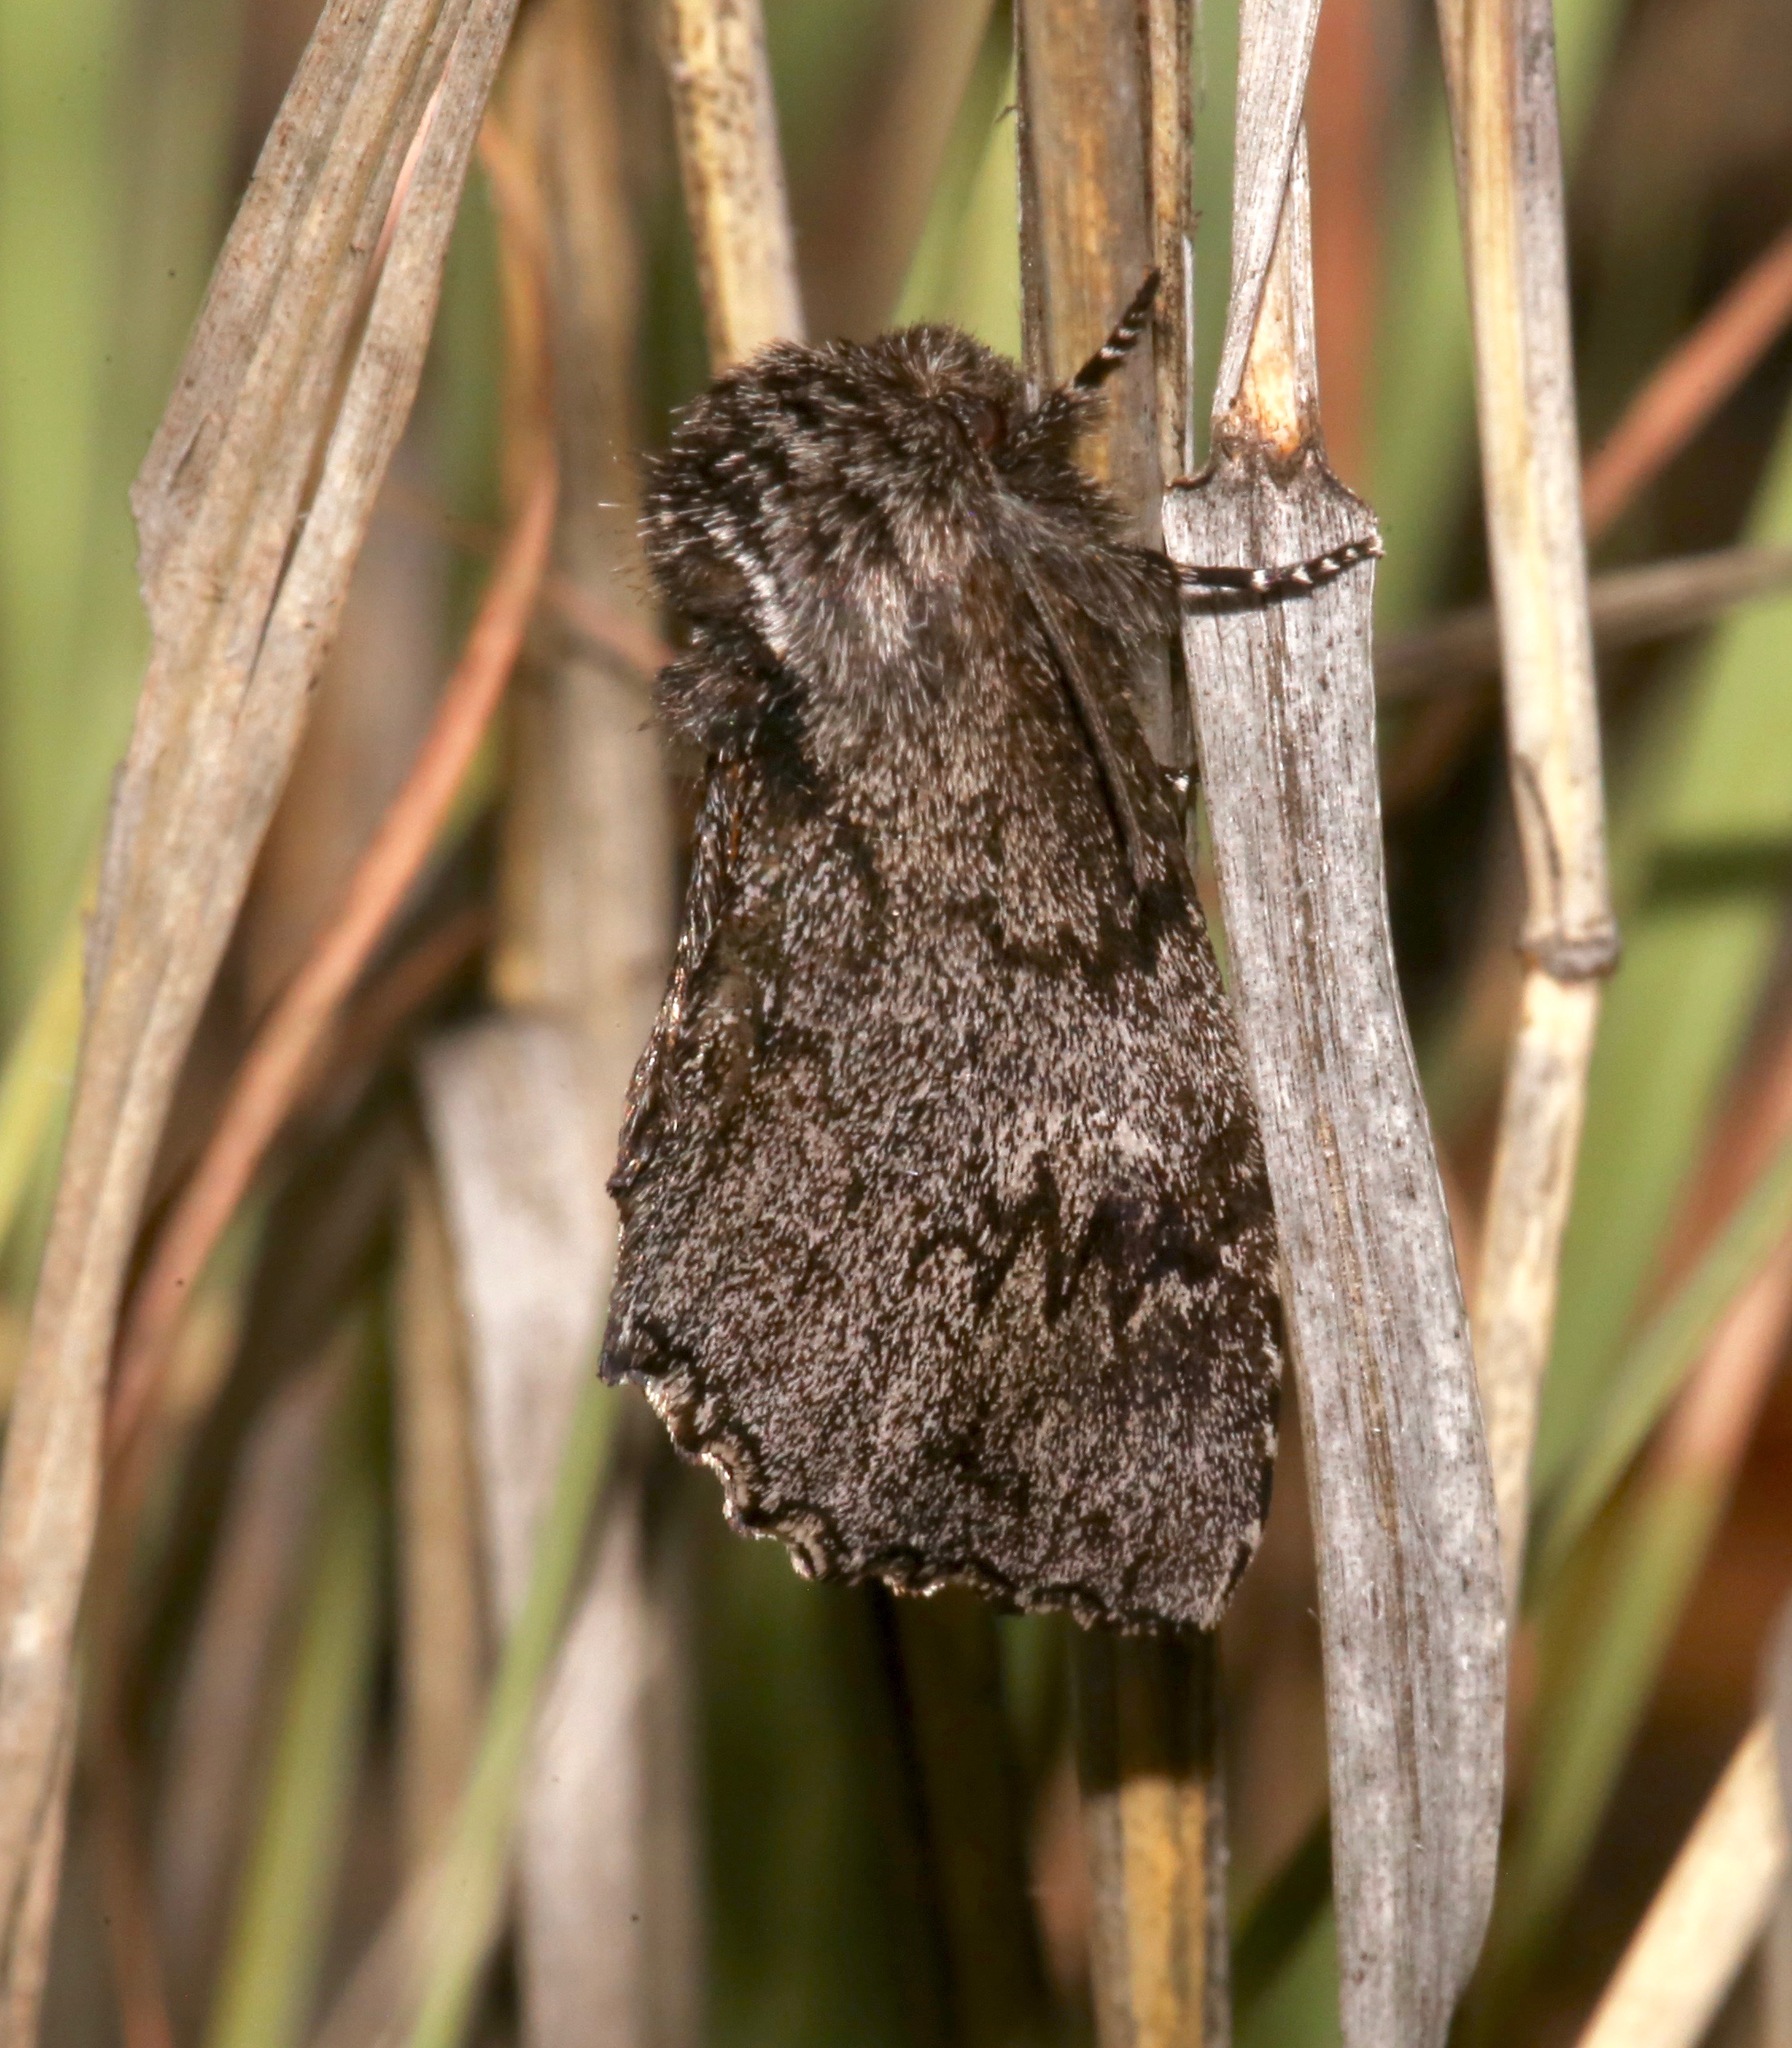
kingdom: Animalia
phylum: Arthropoda
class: Insecta
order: Lepidoptera
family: Notodontidae
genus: Cargida
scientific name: Cargida pyrrha
